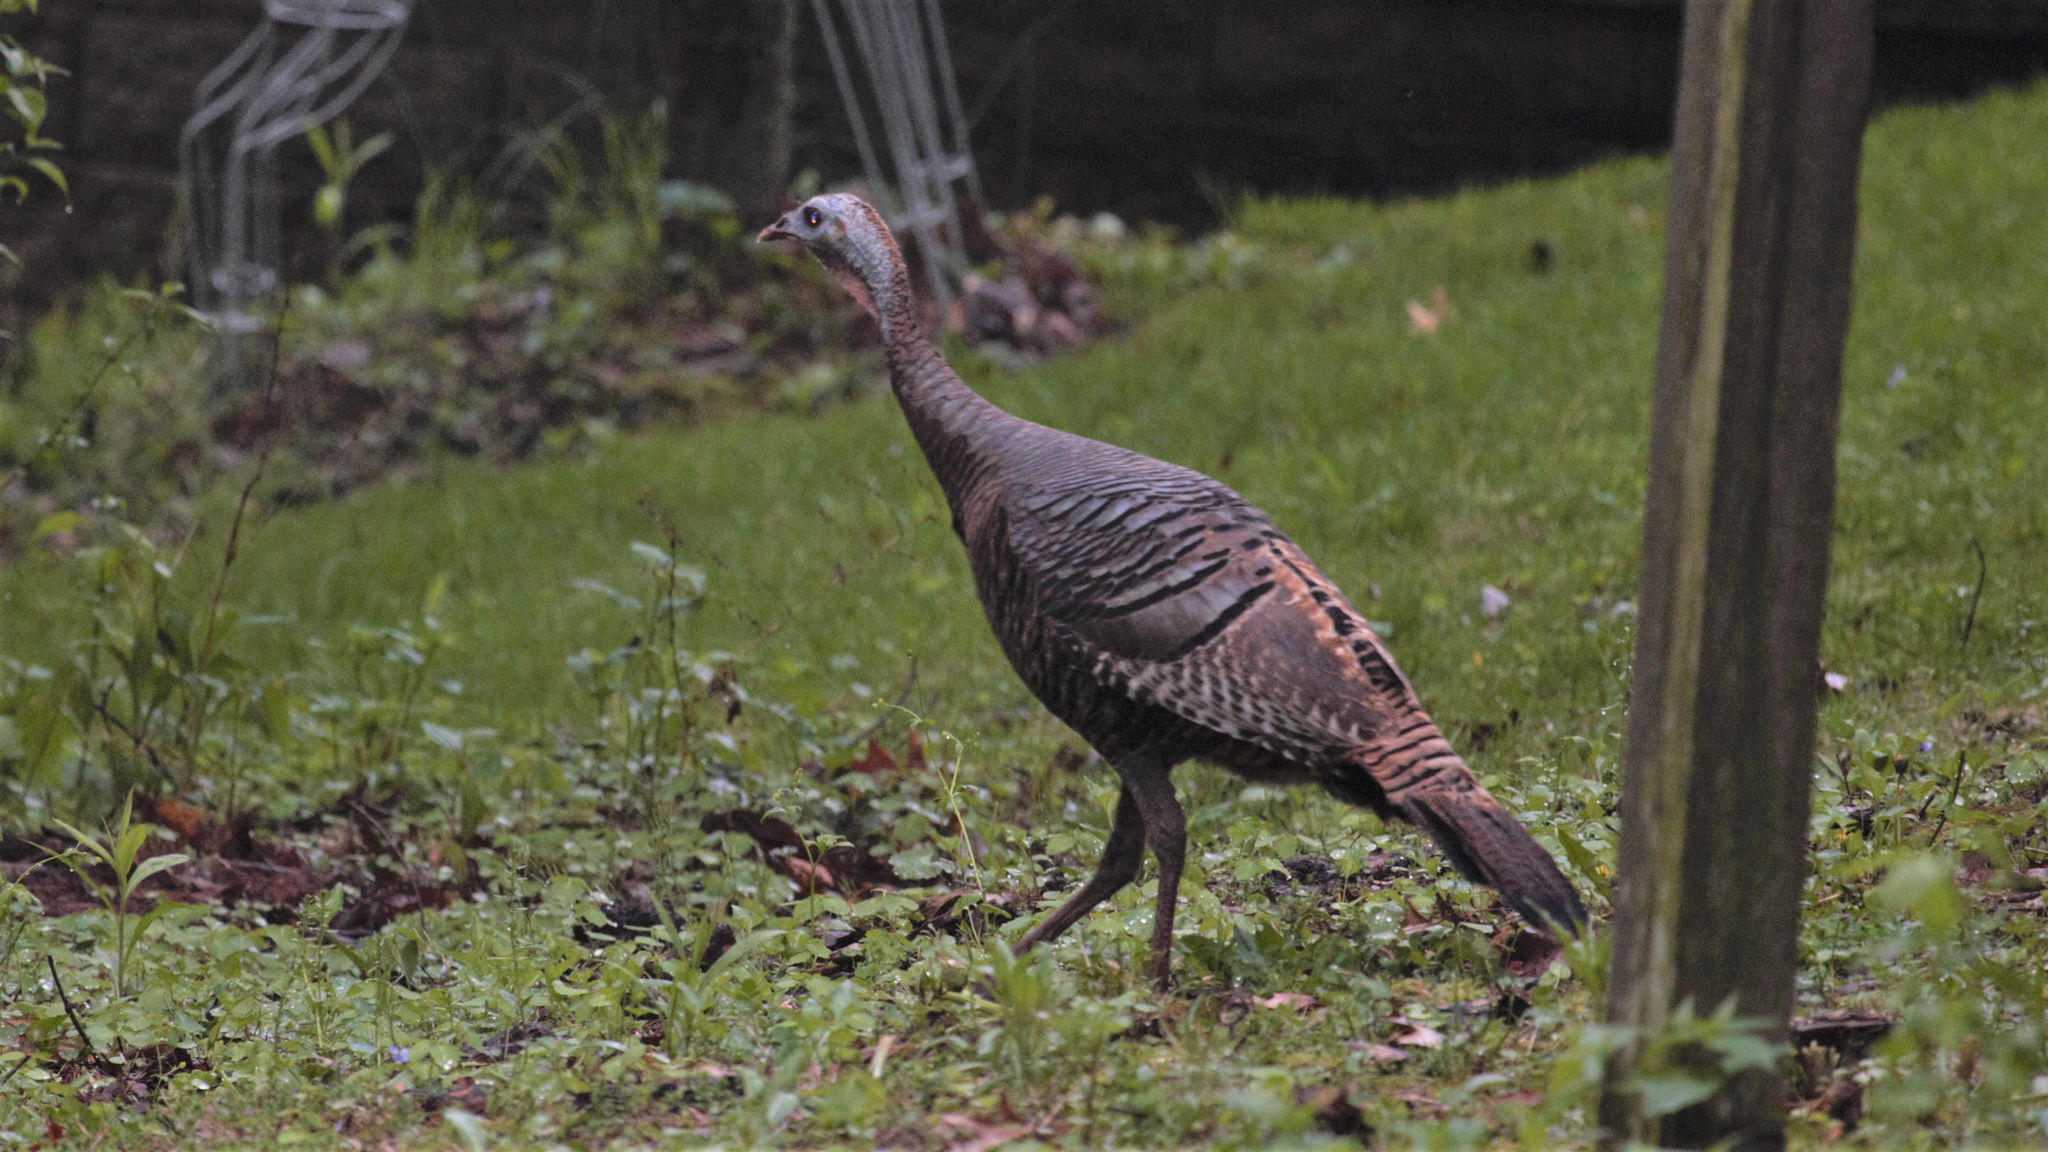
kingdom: Animalia
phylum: Chordata
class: Aves
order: Galliformes
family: Phasianidae
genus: Meleagris
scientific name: Meleagris gallopavo
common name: Wild turkey
